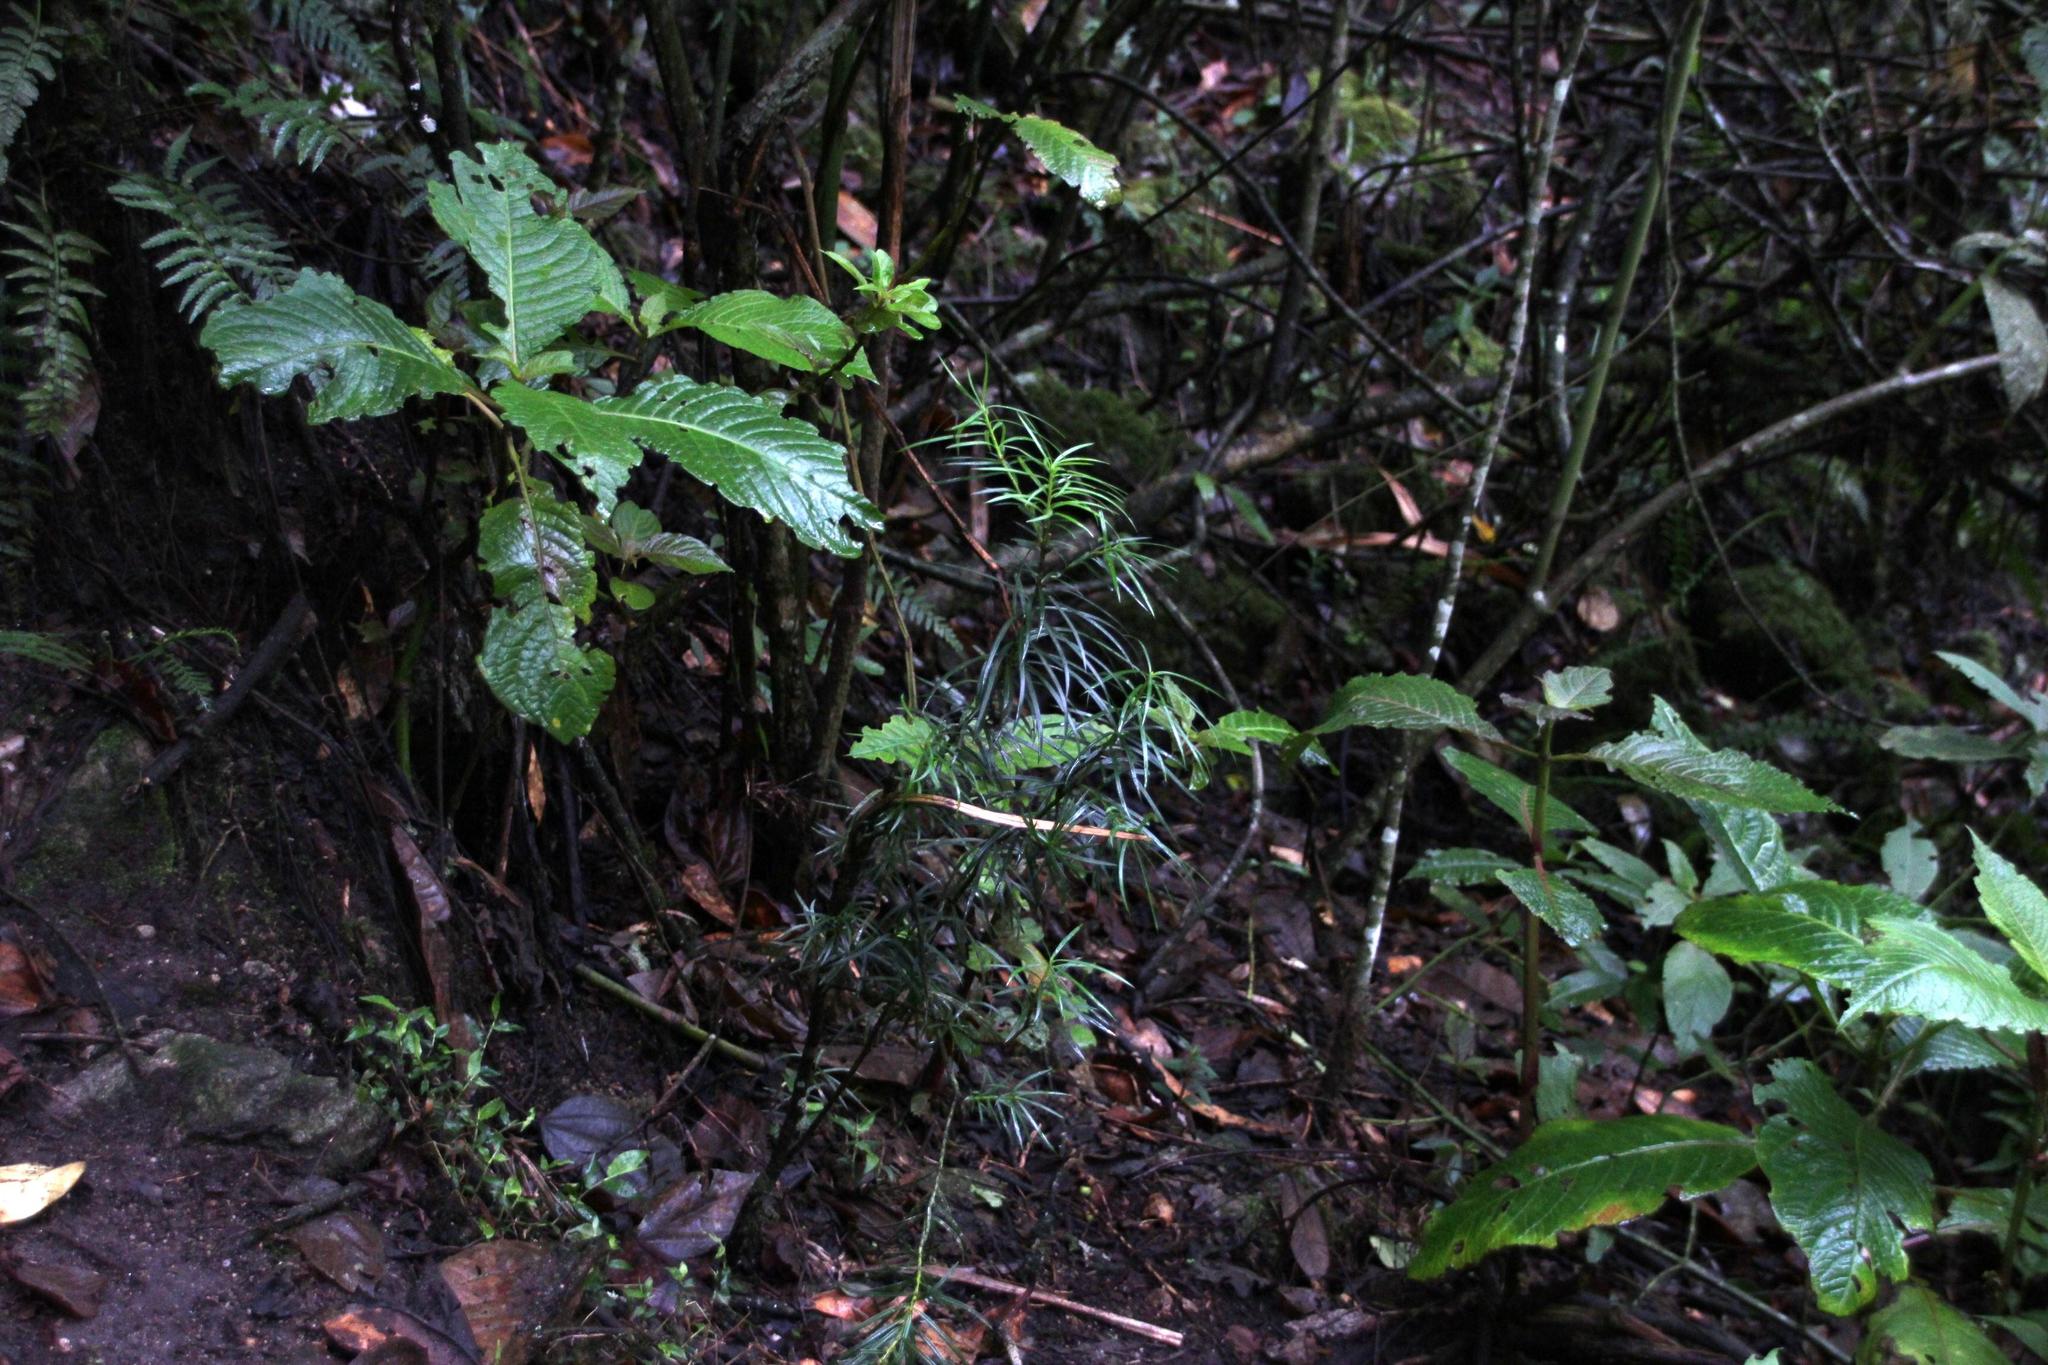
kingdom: Plantae
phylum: Tracheophyta
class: Pinopsida
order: Pinales
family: Podocarpaceae
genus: Podocarpus
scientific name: Podocarpus glomeratus
